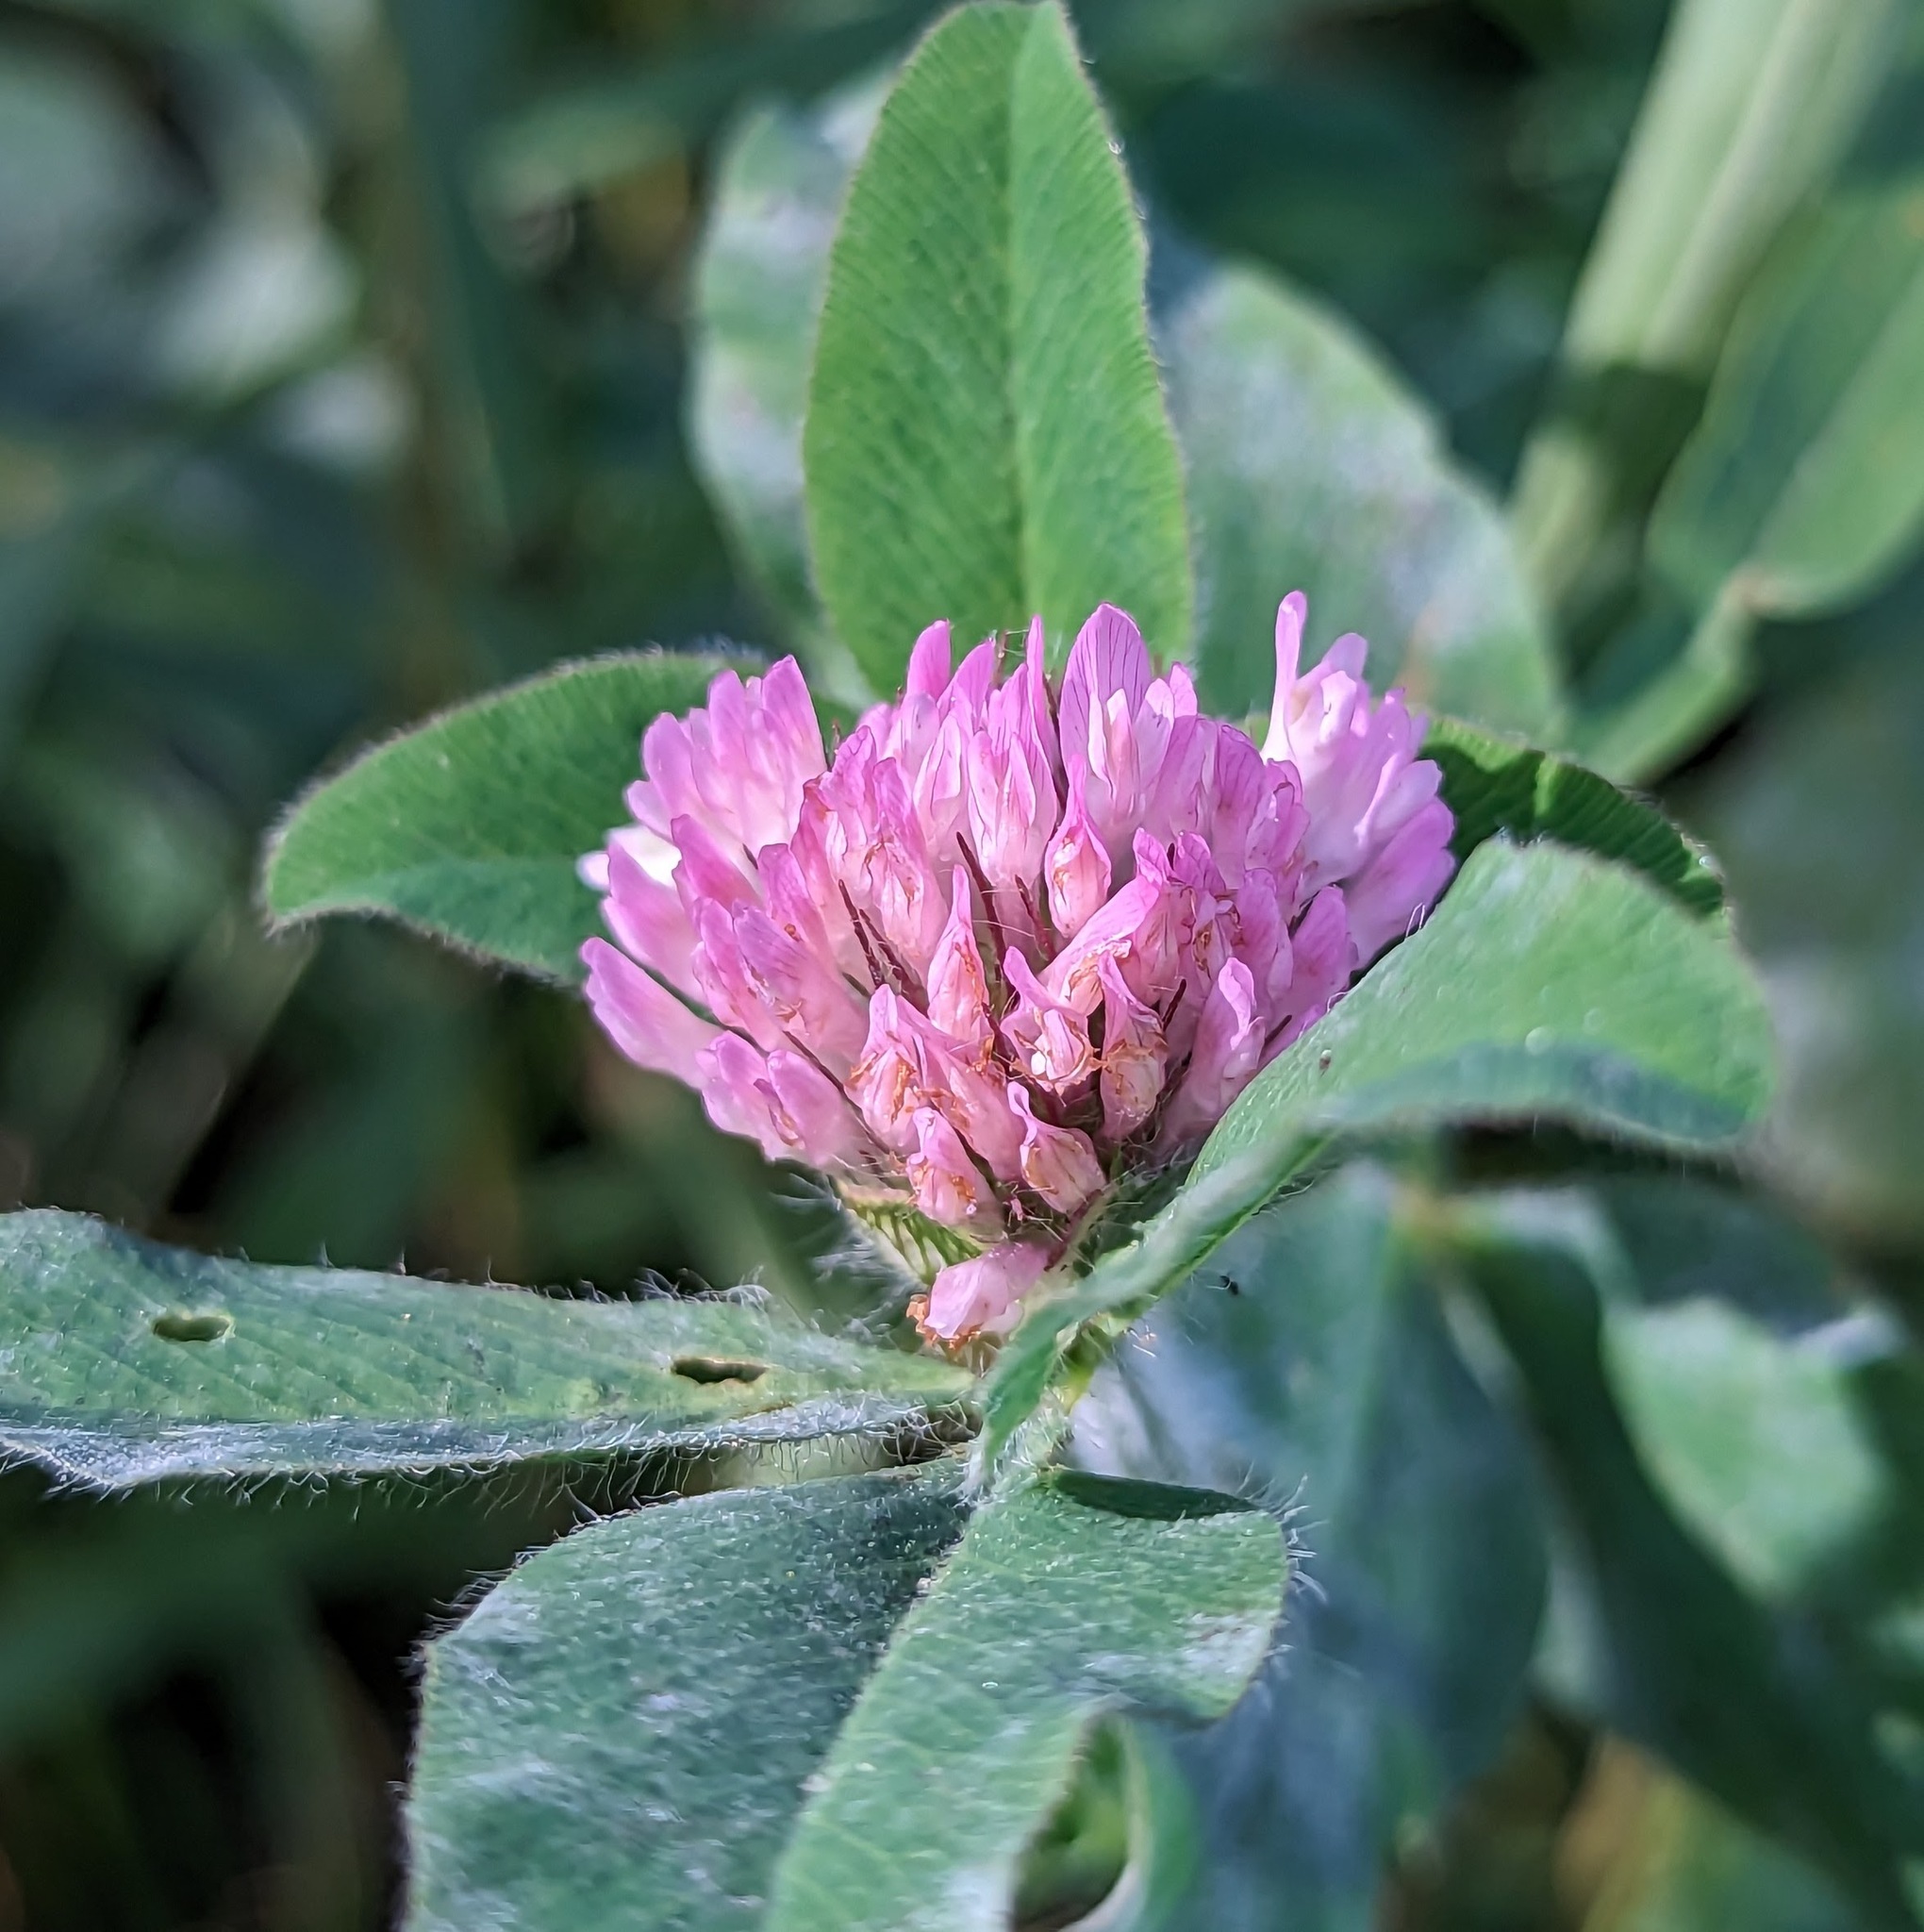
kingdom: Plantae
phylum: Tracheophyta
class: Magnoliopsida
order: Fabales
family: Fabaceae
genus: Trifolium
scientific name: Trifolium pratense
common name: Red clover
